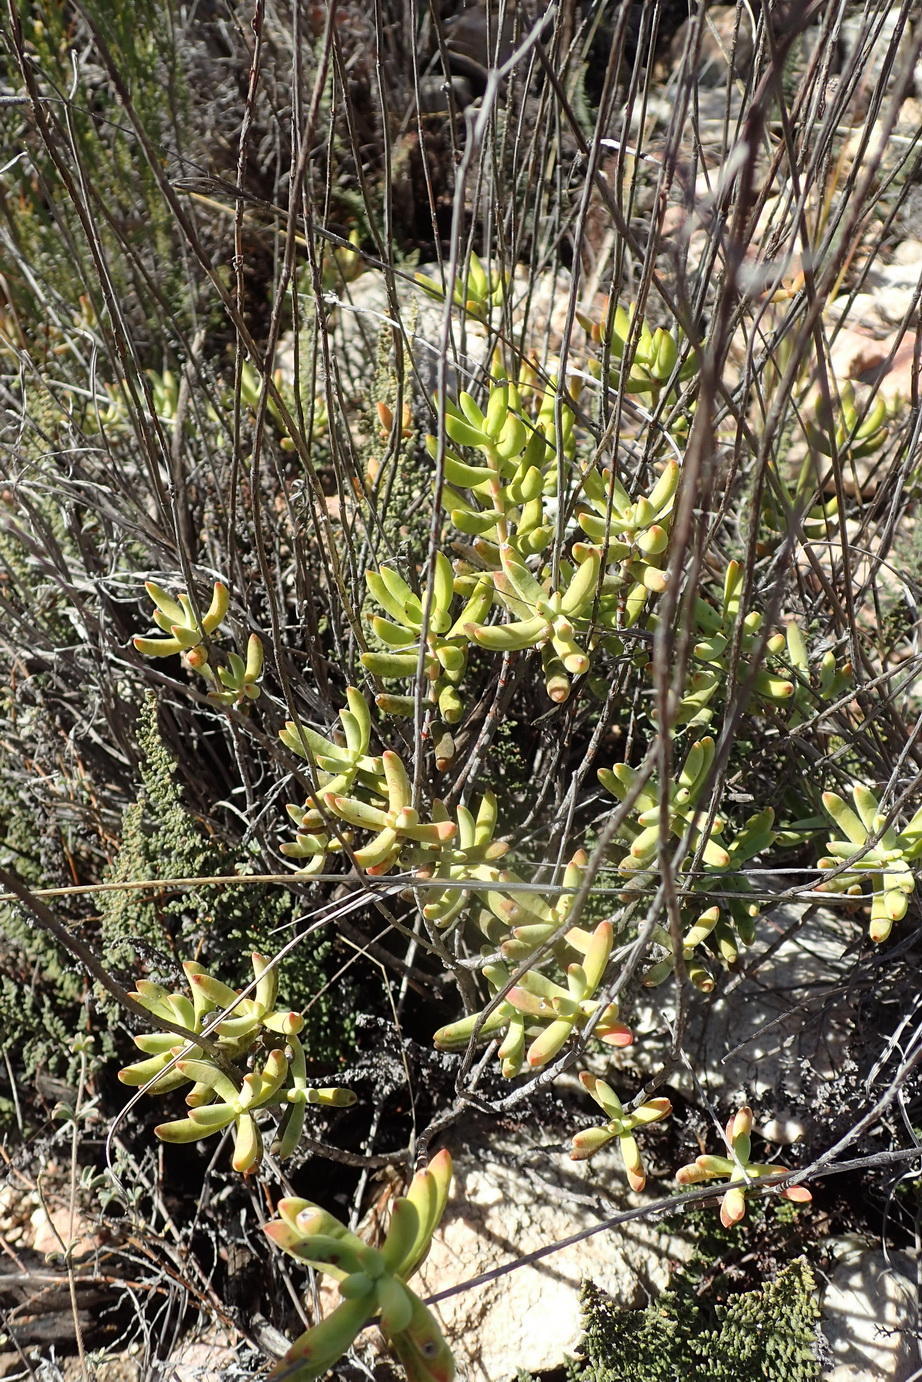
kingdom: Plantae
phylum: Tracheophyta
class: Magnoliopsida
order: Saxifragales
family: Crassulaceae
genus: Crassula
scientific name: Crassula mollis
